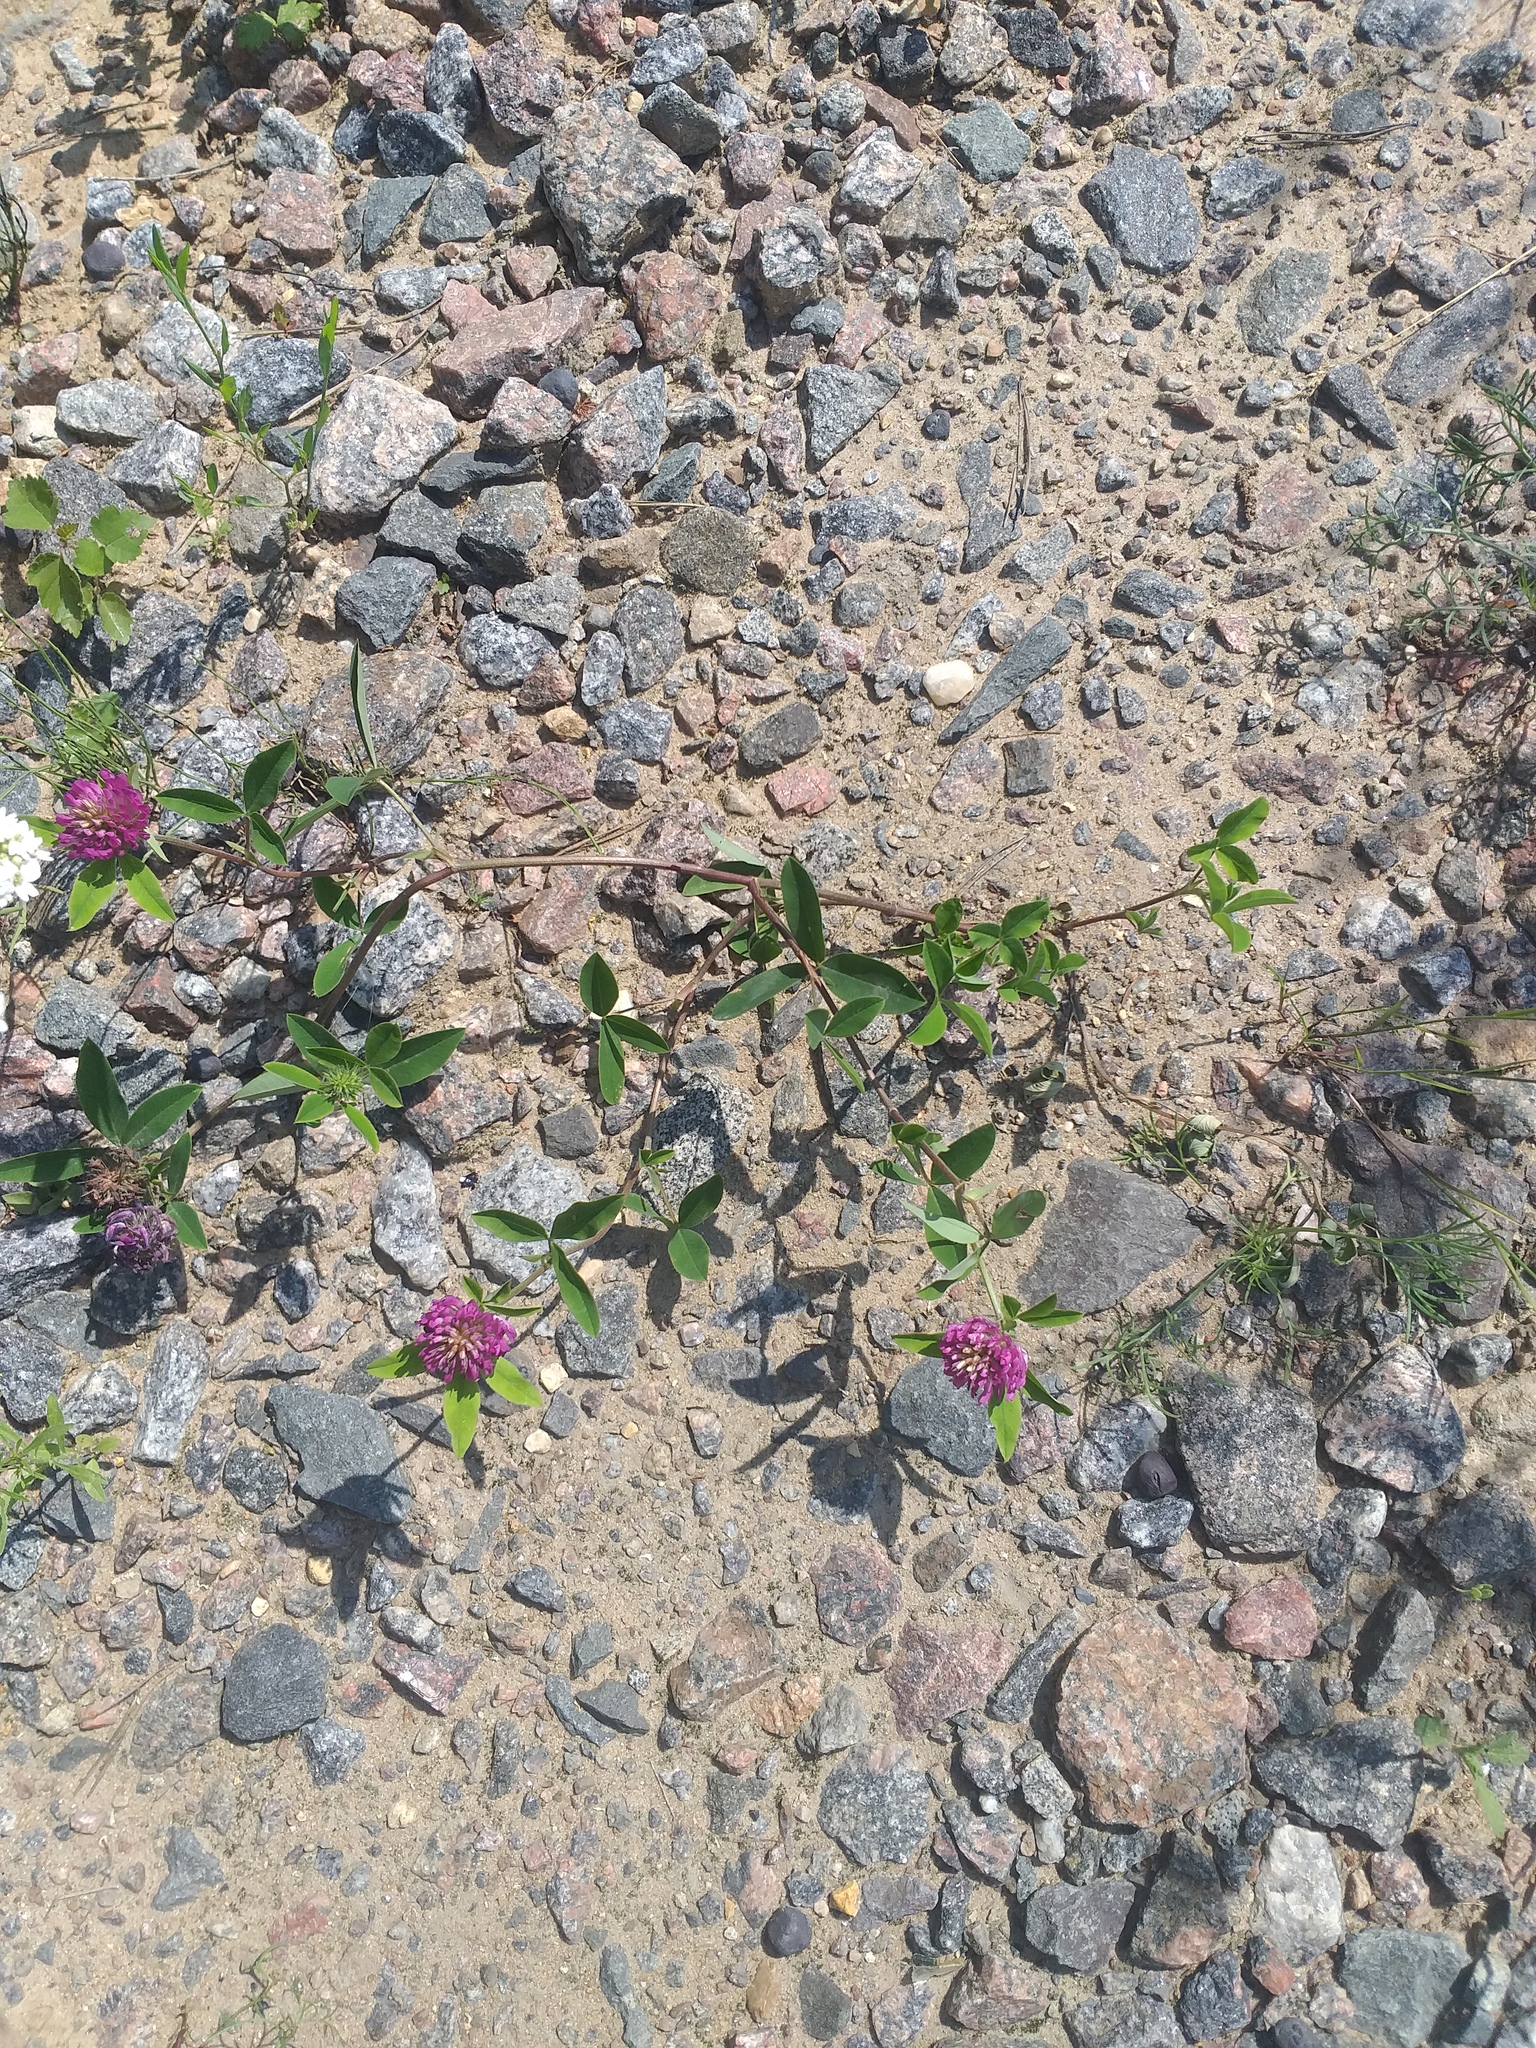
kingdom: Plantae
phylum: Tracheophyta
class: Magnoliopsida
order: Fabales
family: Fabaceae
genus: Trifolium
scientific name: Trifolium medium
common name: Zigzag clover
